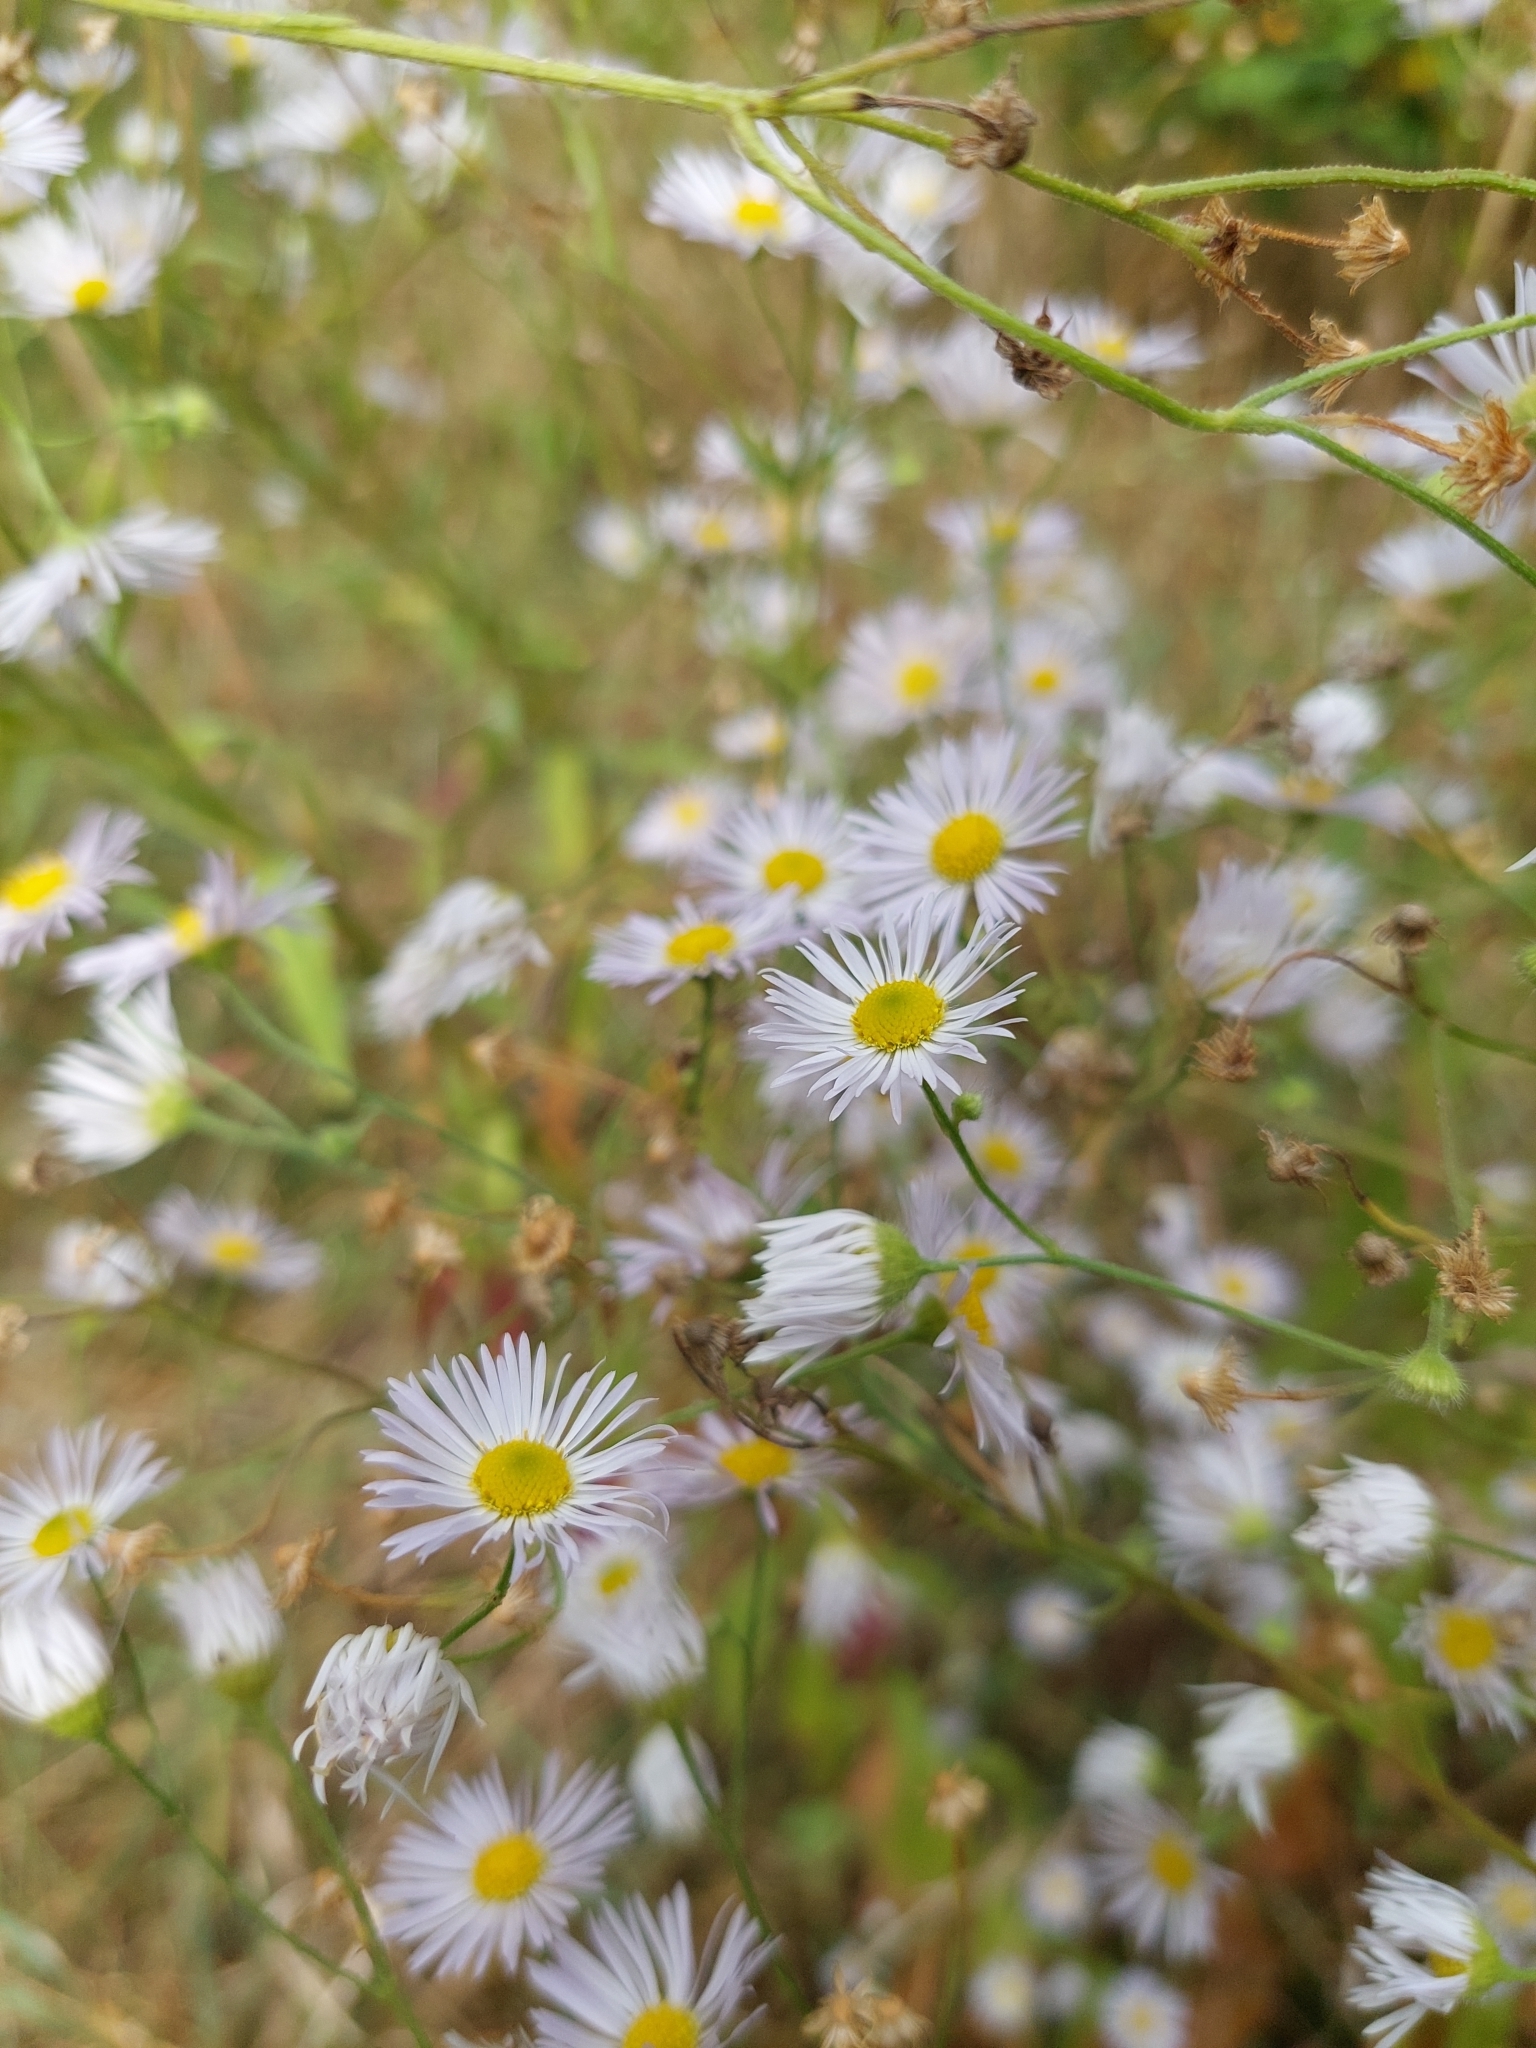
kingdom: Plantae
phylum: Tracheophyta
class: Magnoliopsida
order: Asterales
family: Asteraceae
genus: Erigeron
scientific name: Erigeron annuus
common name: Tall fleabane
